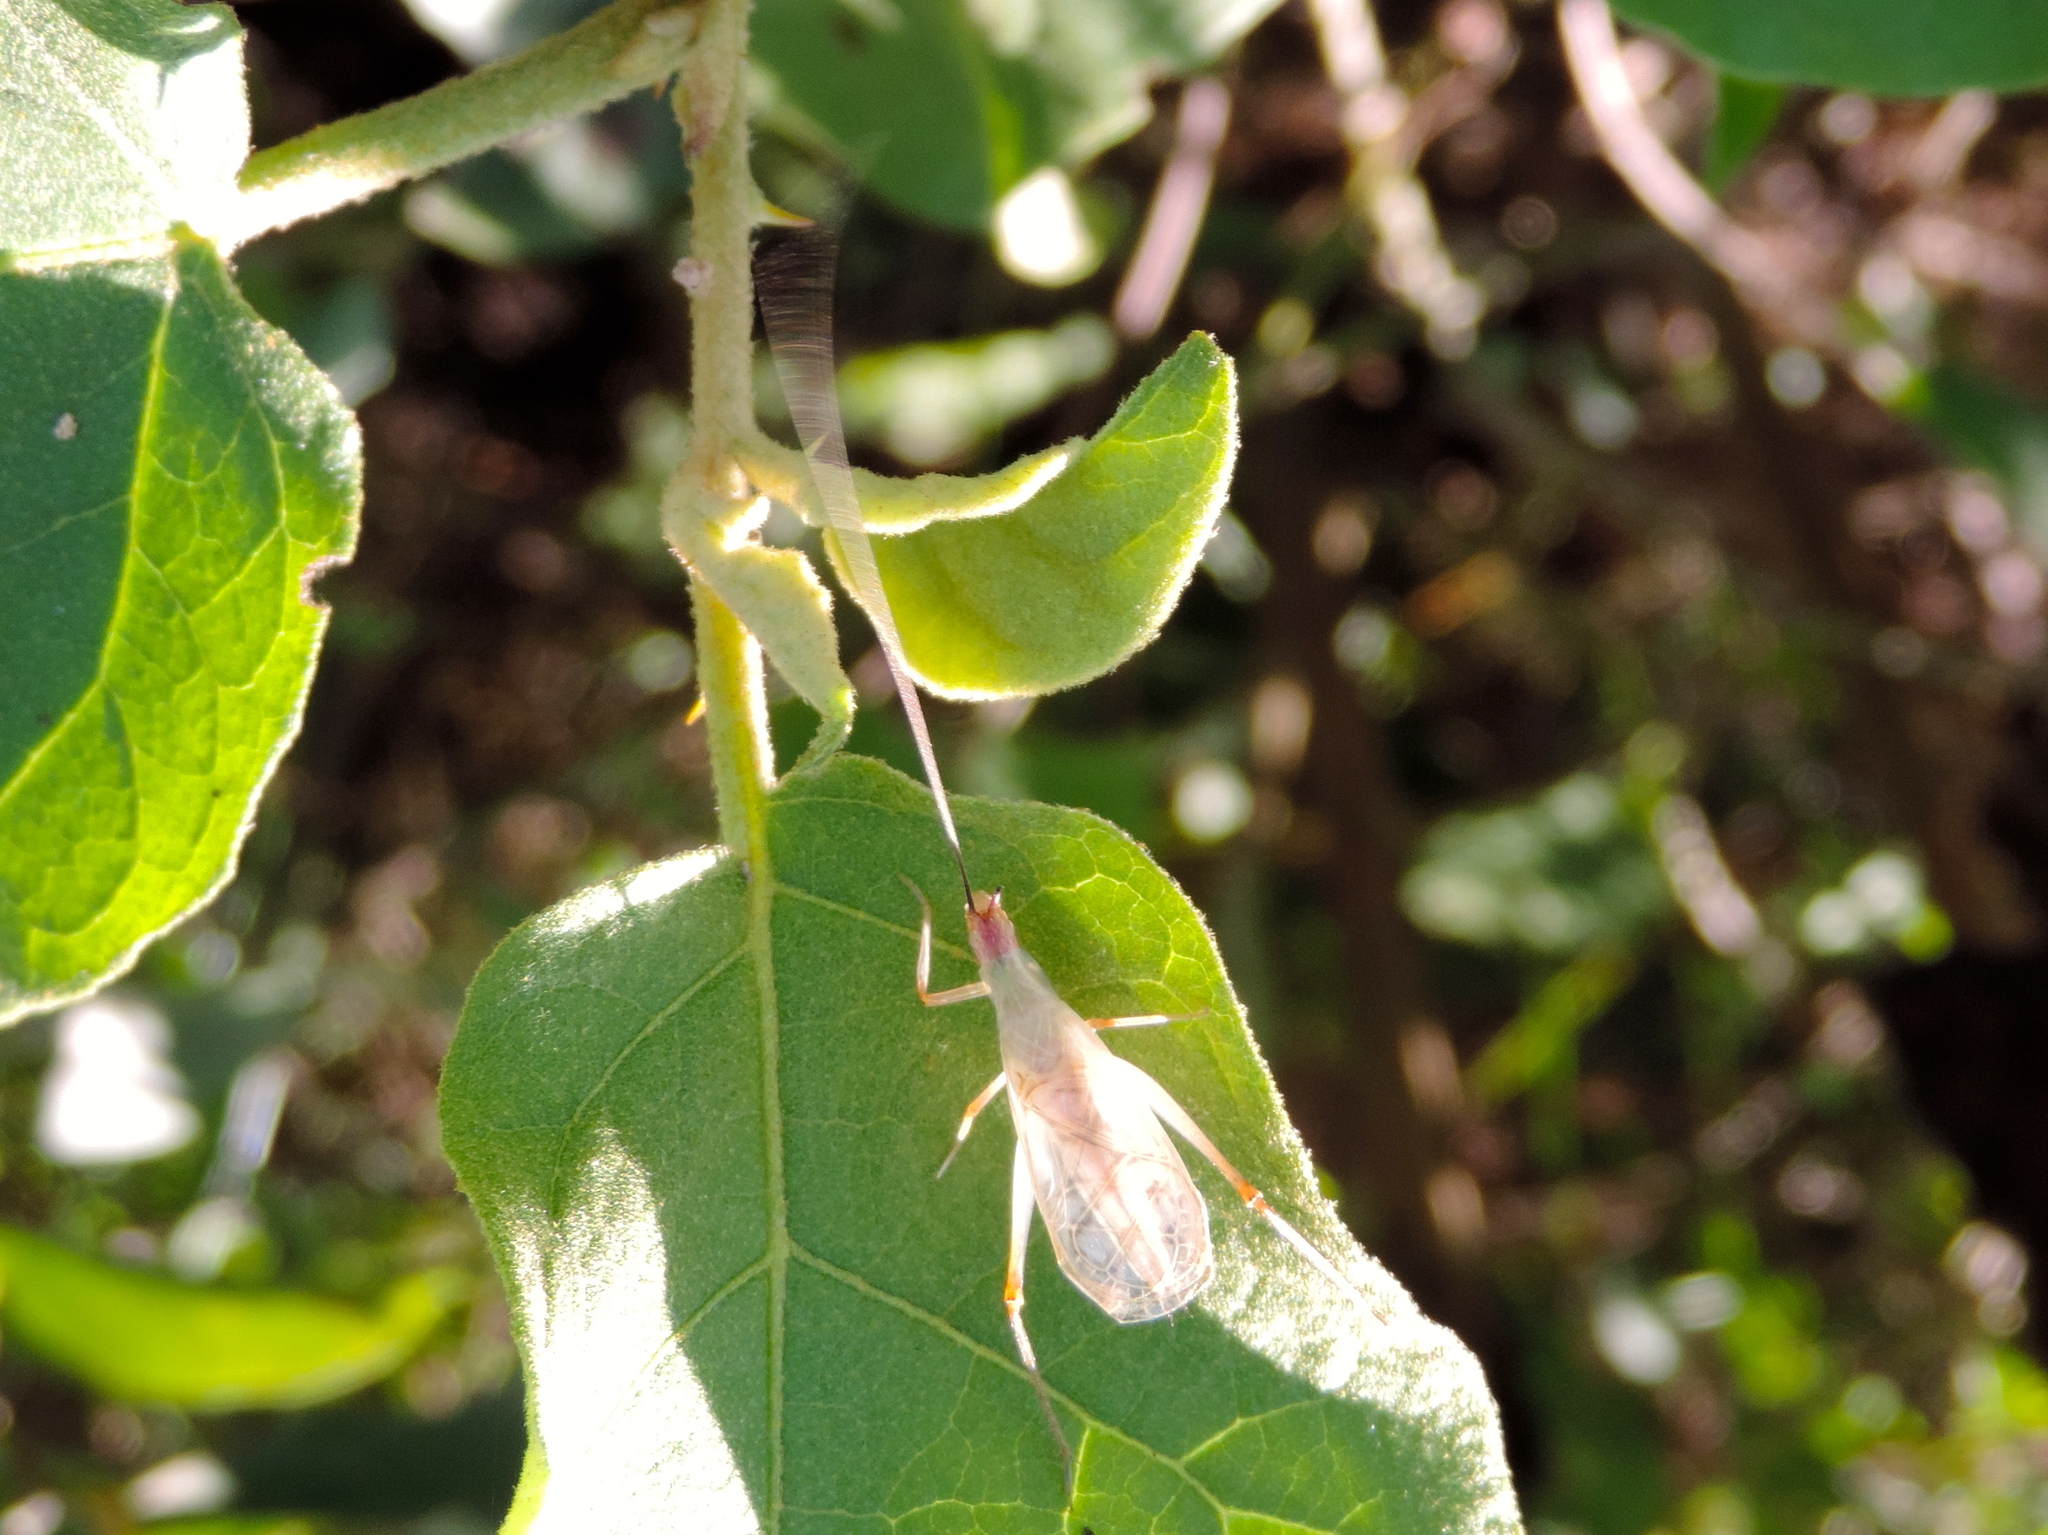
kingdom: Animalia
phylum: Arthropoda
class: Insecta
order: Orthoptera
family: Gryllidae
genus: Oecanthus
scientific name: Oecanthus californicus
